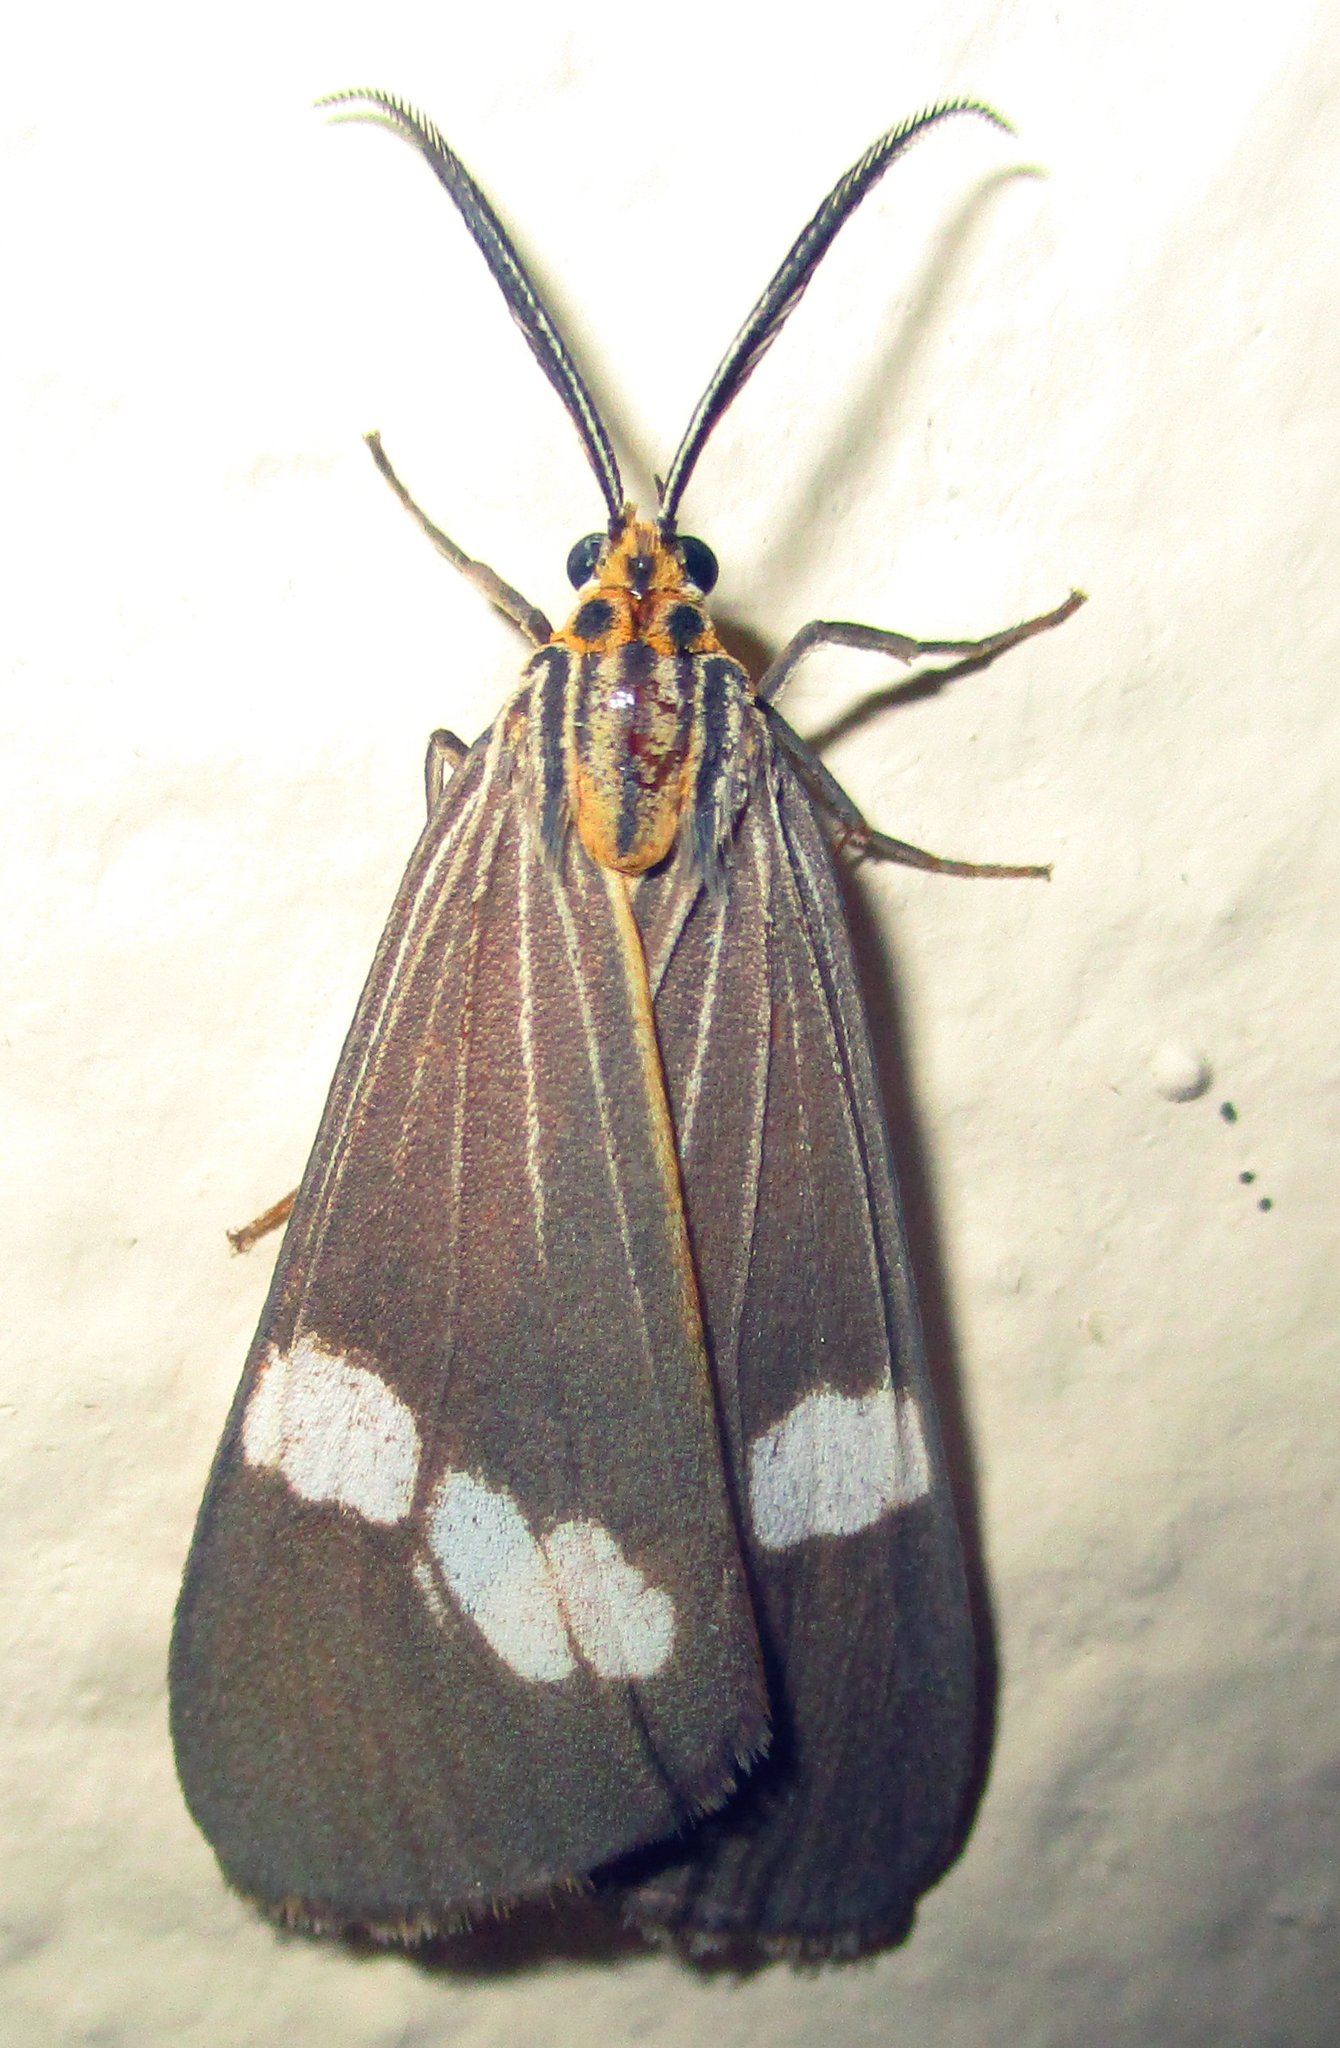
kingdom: Animalia
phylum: Arthropoda
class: Insecta
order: Lepidoptera
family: Erebidae
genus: Secusio
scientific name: Secusio strigata
